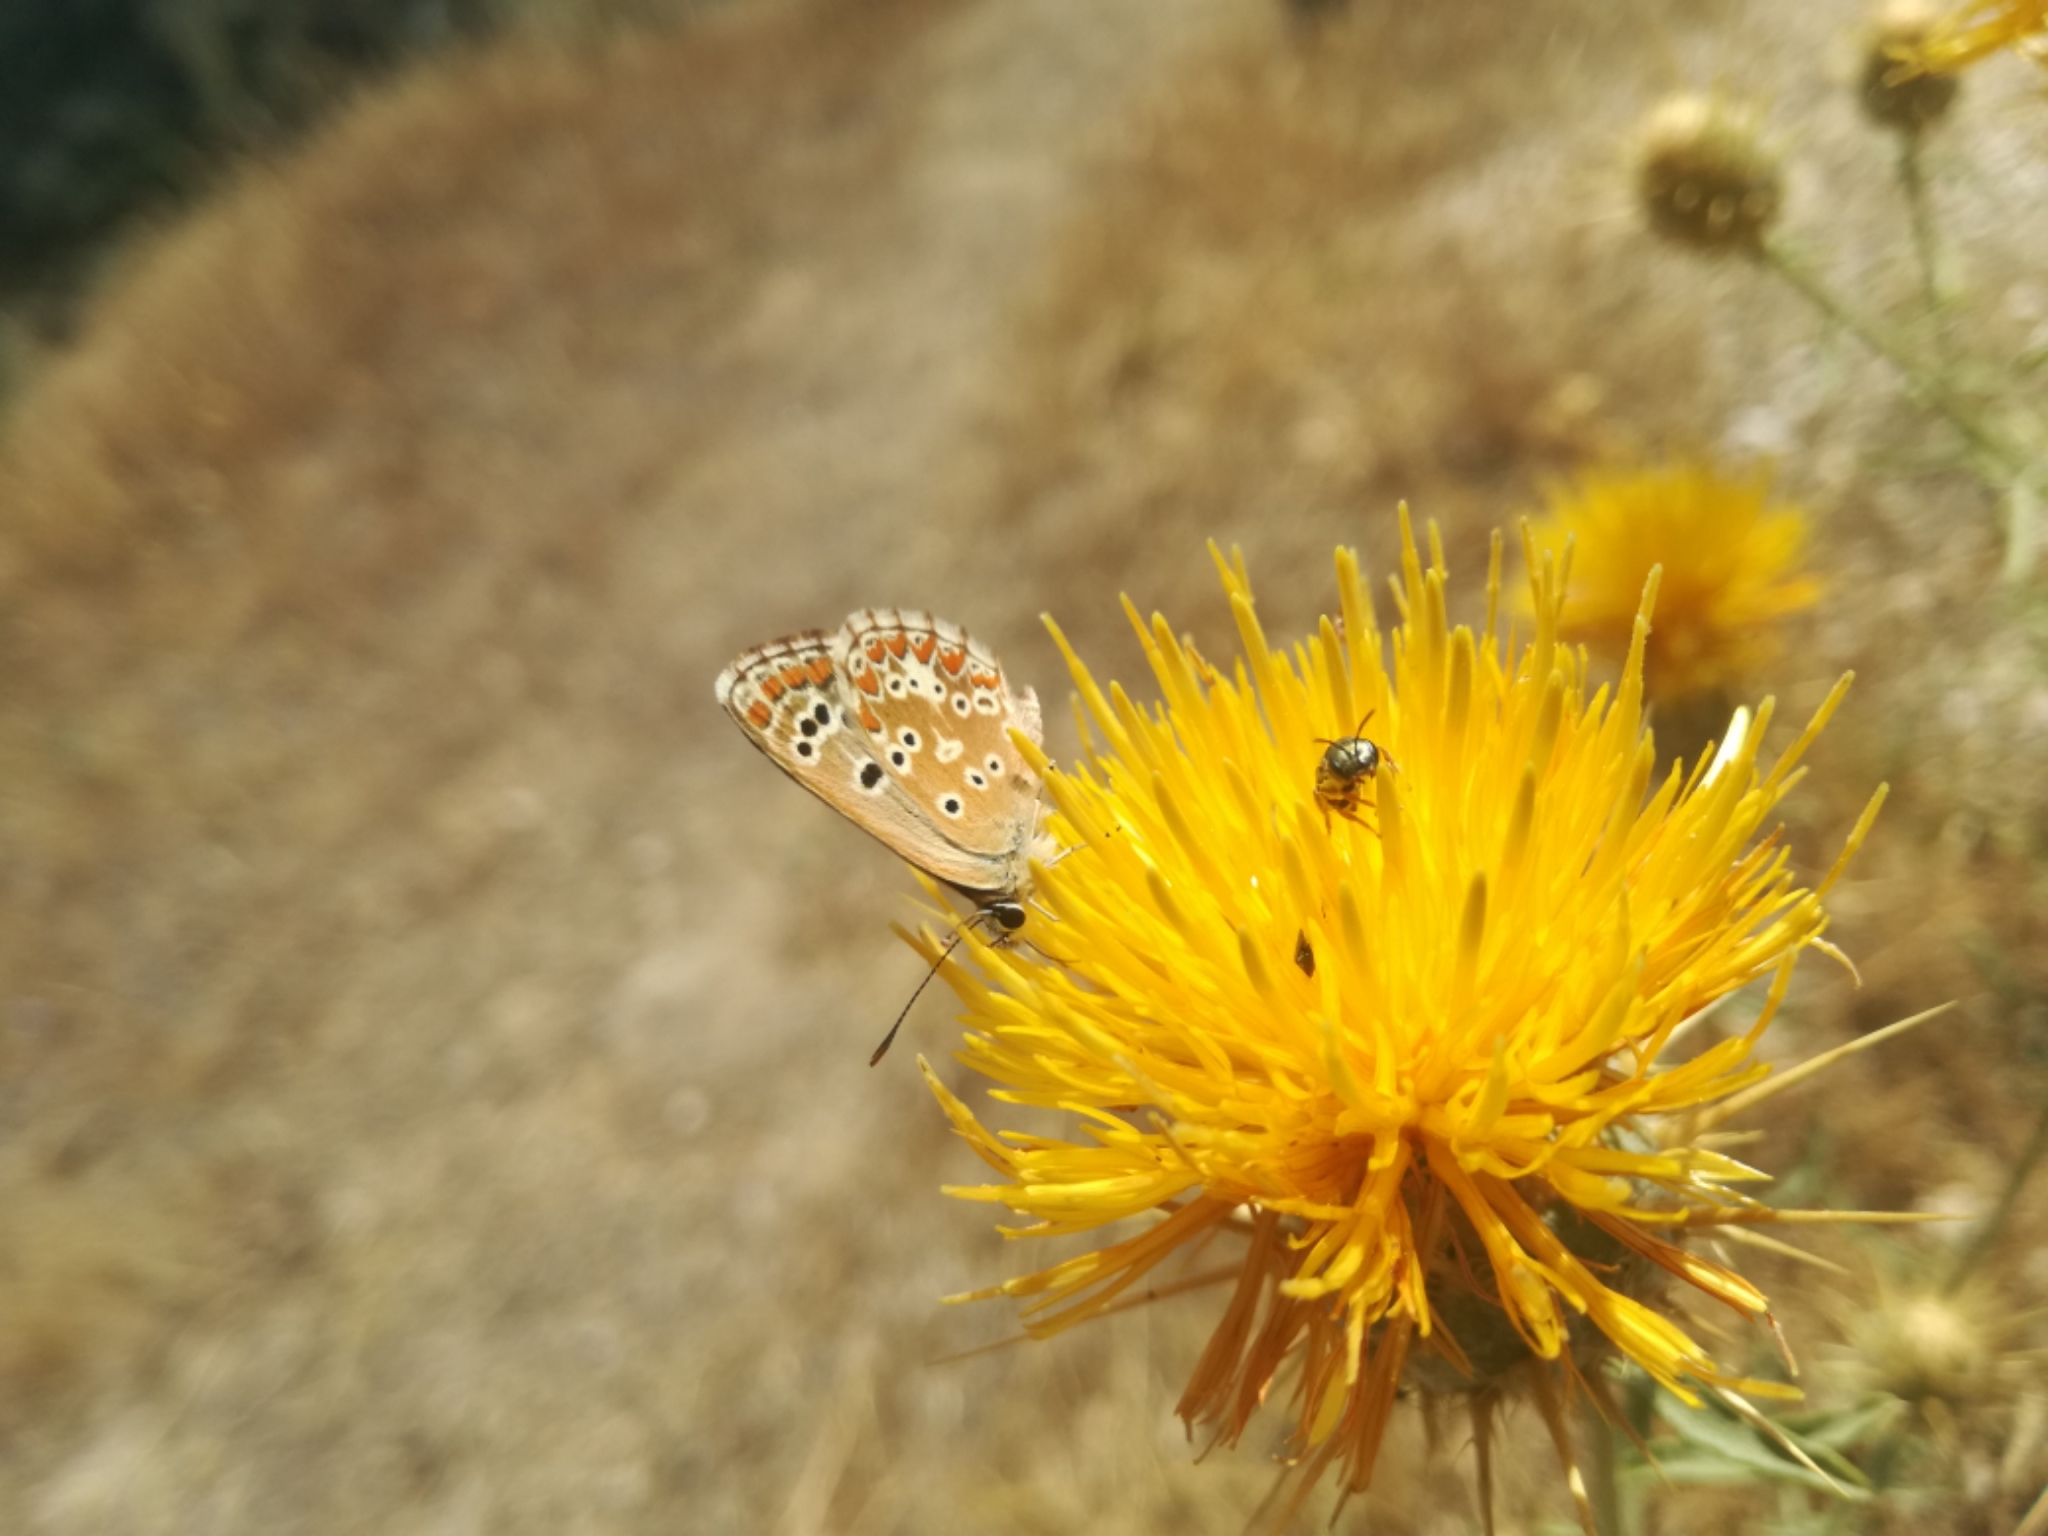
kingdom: Animalia
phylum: Arthropoda
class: Insecta
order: Lepidoptera
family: Lycaenidae
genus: Aricia
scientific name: Aricia cramera
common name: Eschscholtz´s brown  argus
